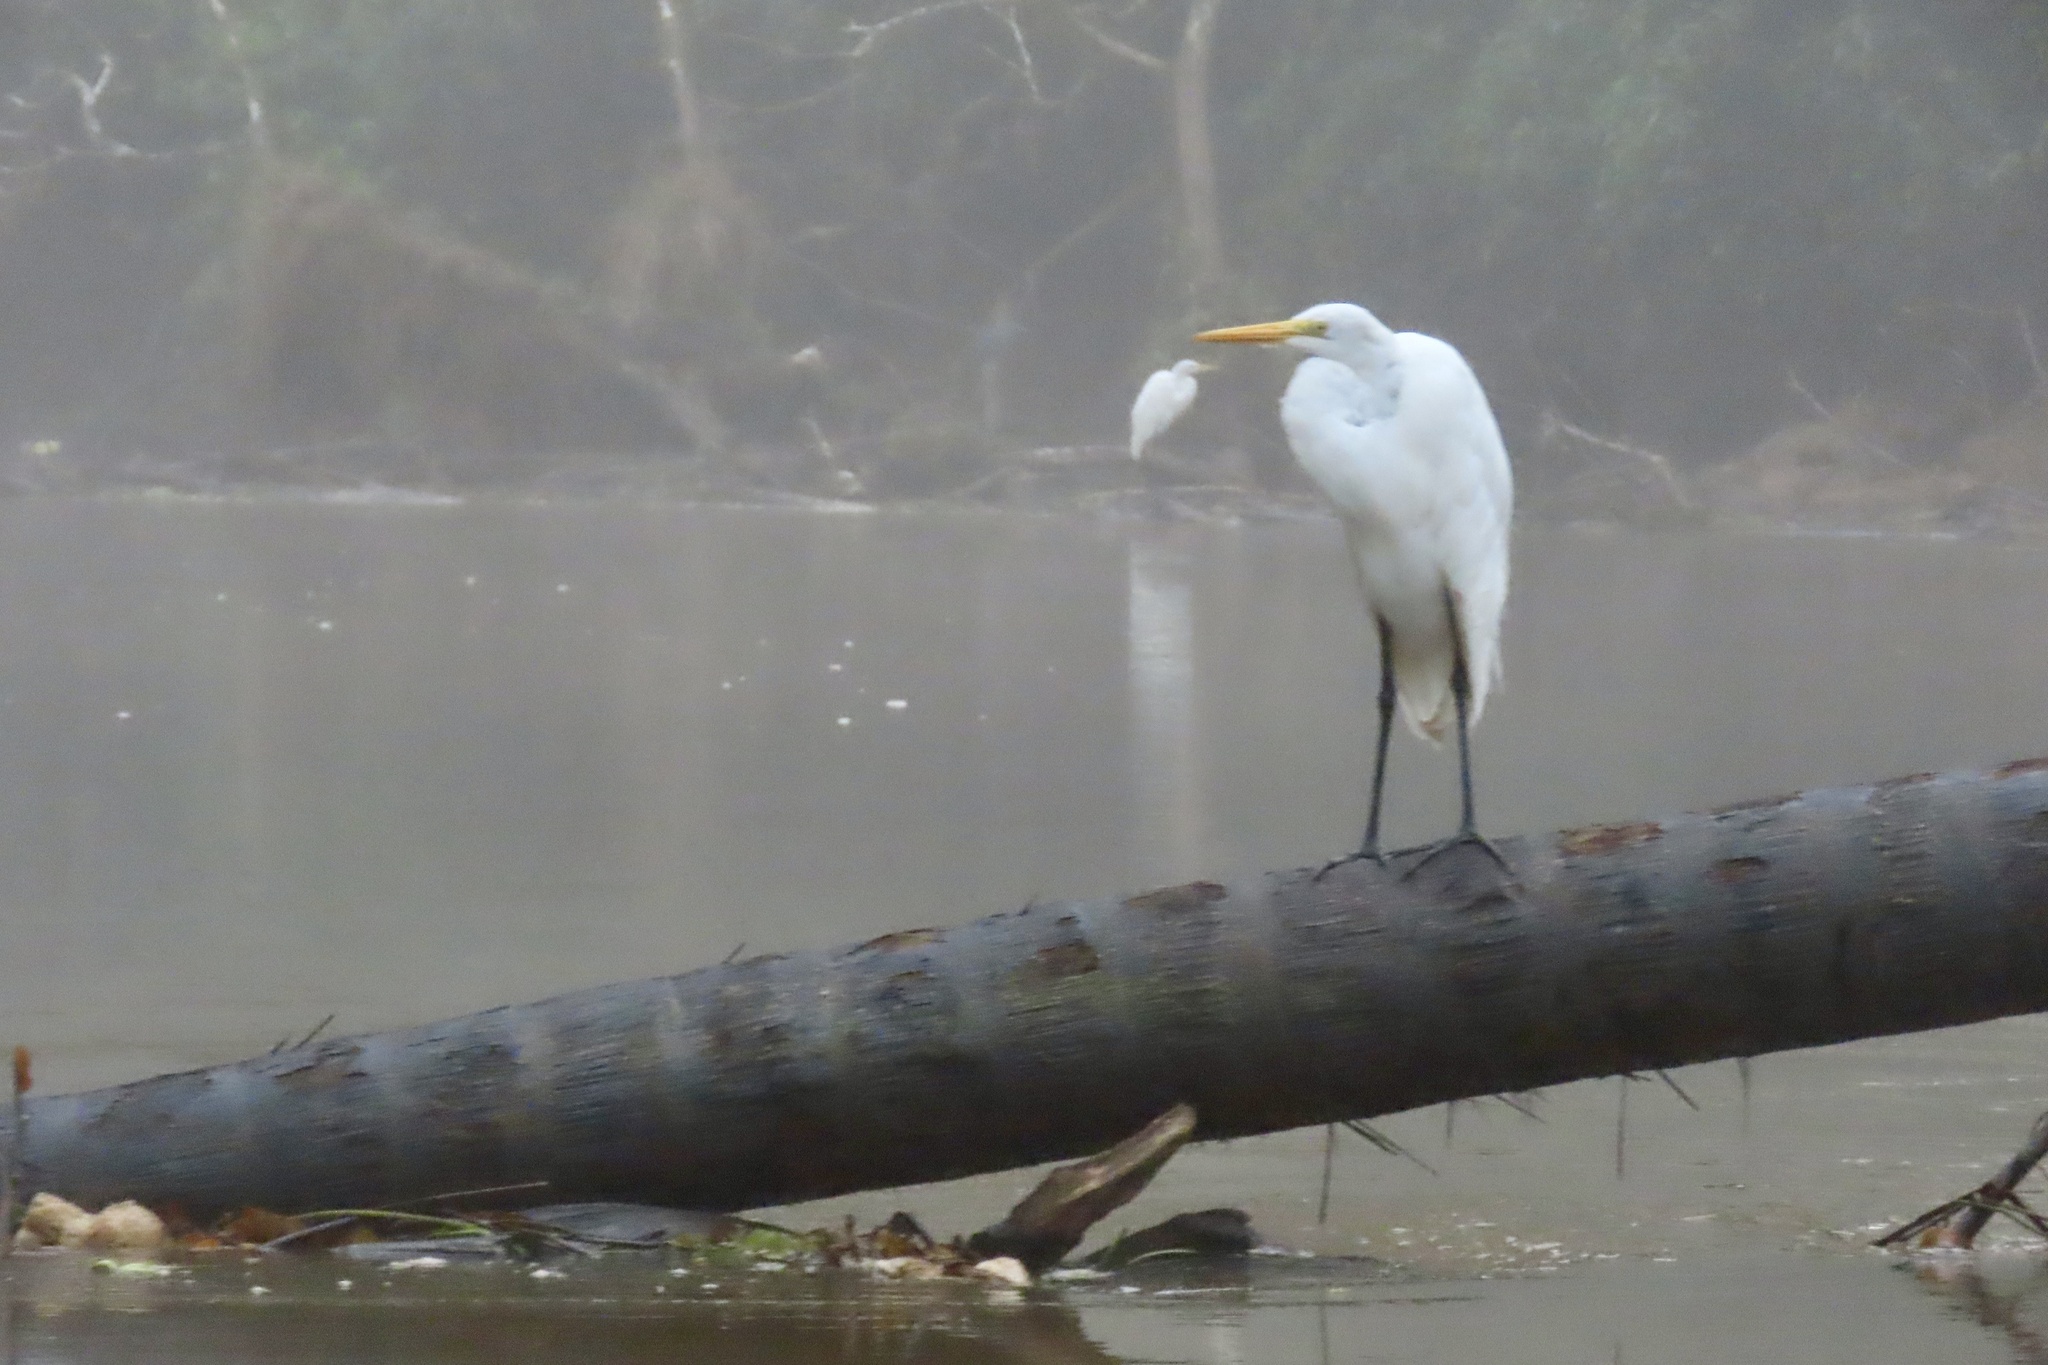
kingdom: Animalia
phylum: Chordata
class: Aves
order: Pelecaniformes
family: Ardeidae
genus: Ardea
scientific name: Ardea alba
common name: Great egret
